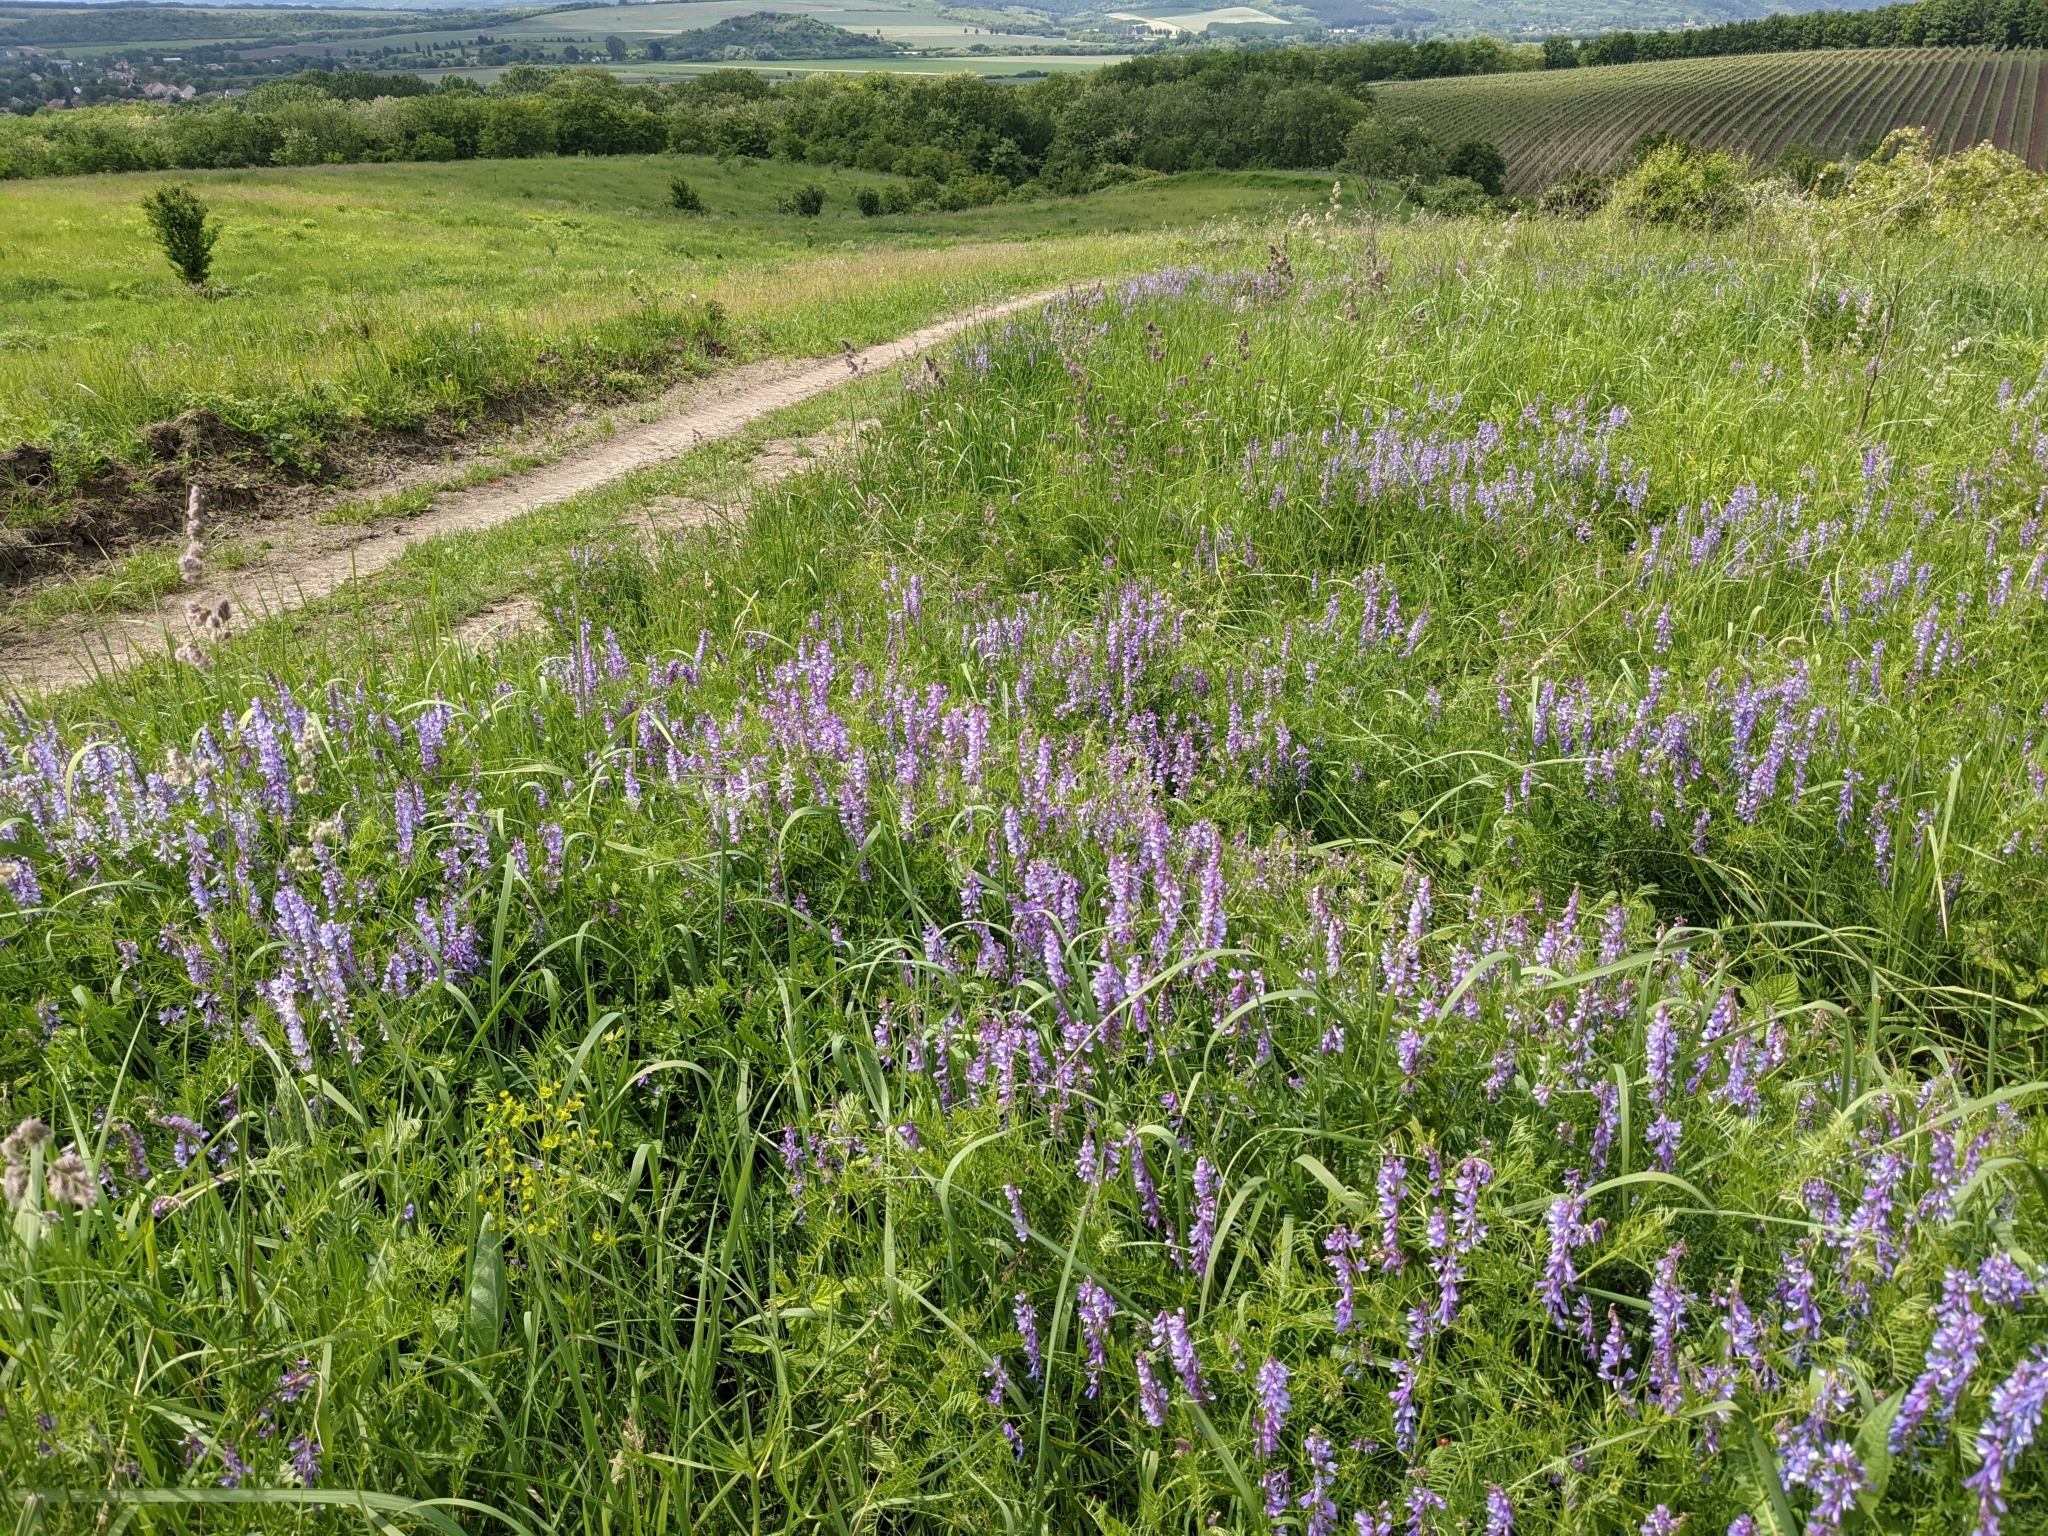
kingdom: Plantae
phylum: Tracheophyta
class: Magnoliopsida
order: Fabales
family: Fabaceae
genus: Vicia
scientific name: Vicia tenuifolia
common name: Fine-leaved vetch
